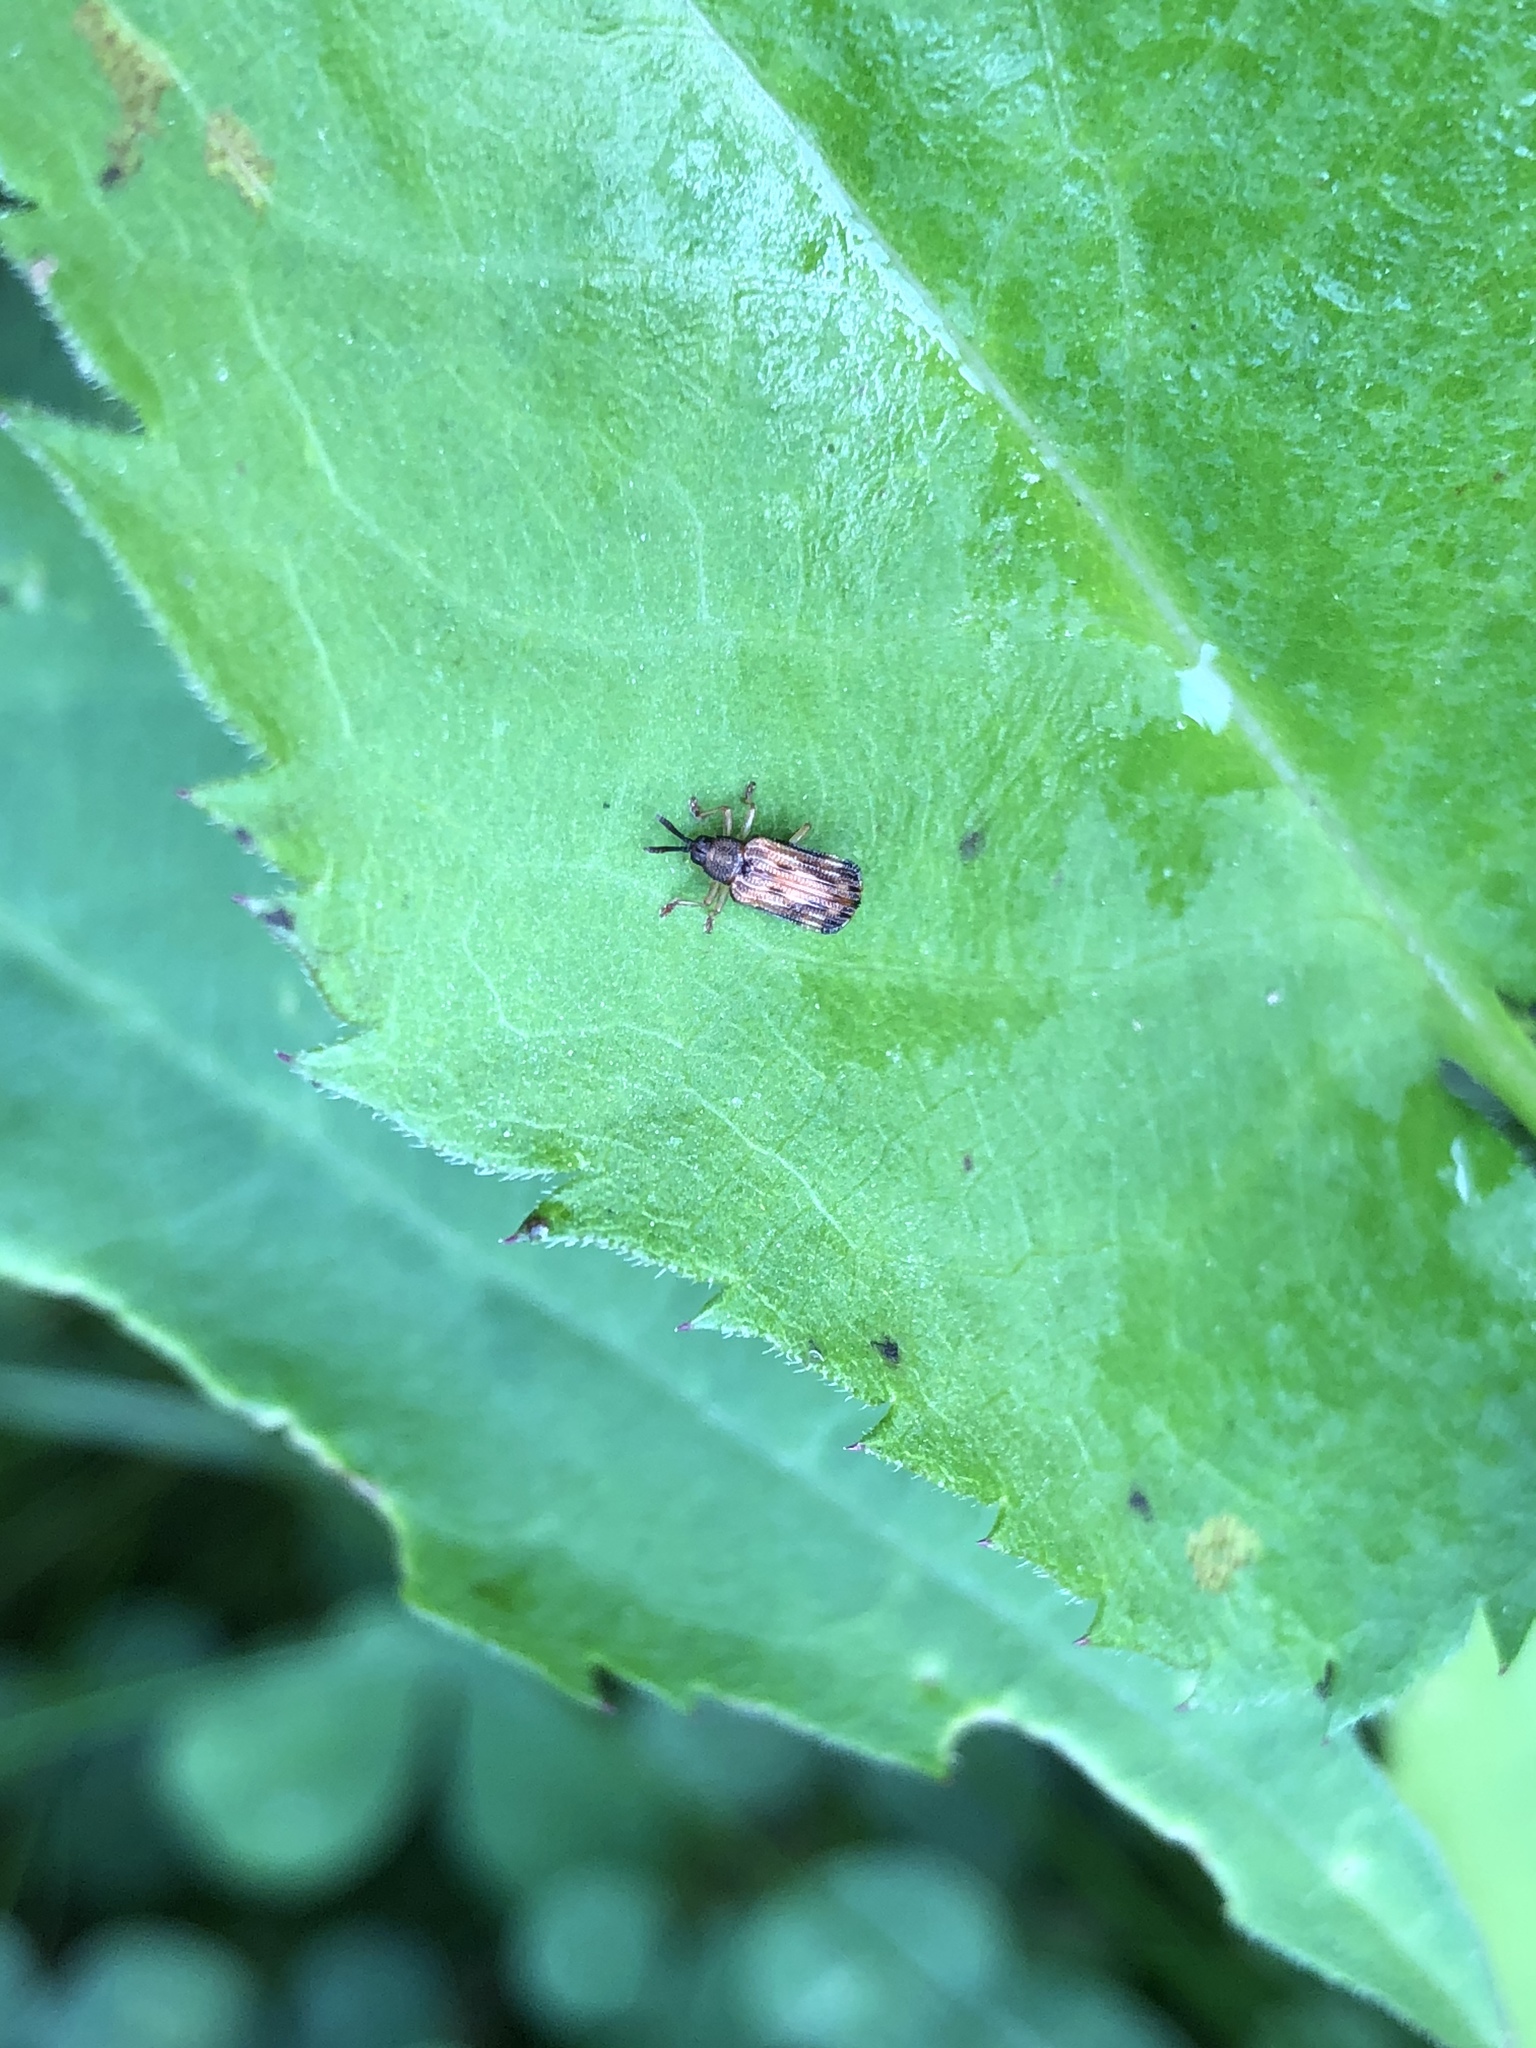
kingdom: Animalia
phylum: Arthropoda
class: Insecta
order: Coleoptera
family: Chrysomelidae
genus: Sumitrosis
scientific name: Sumitrosis inaequalis
